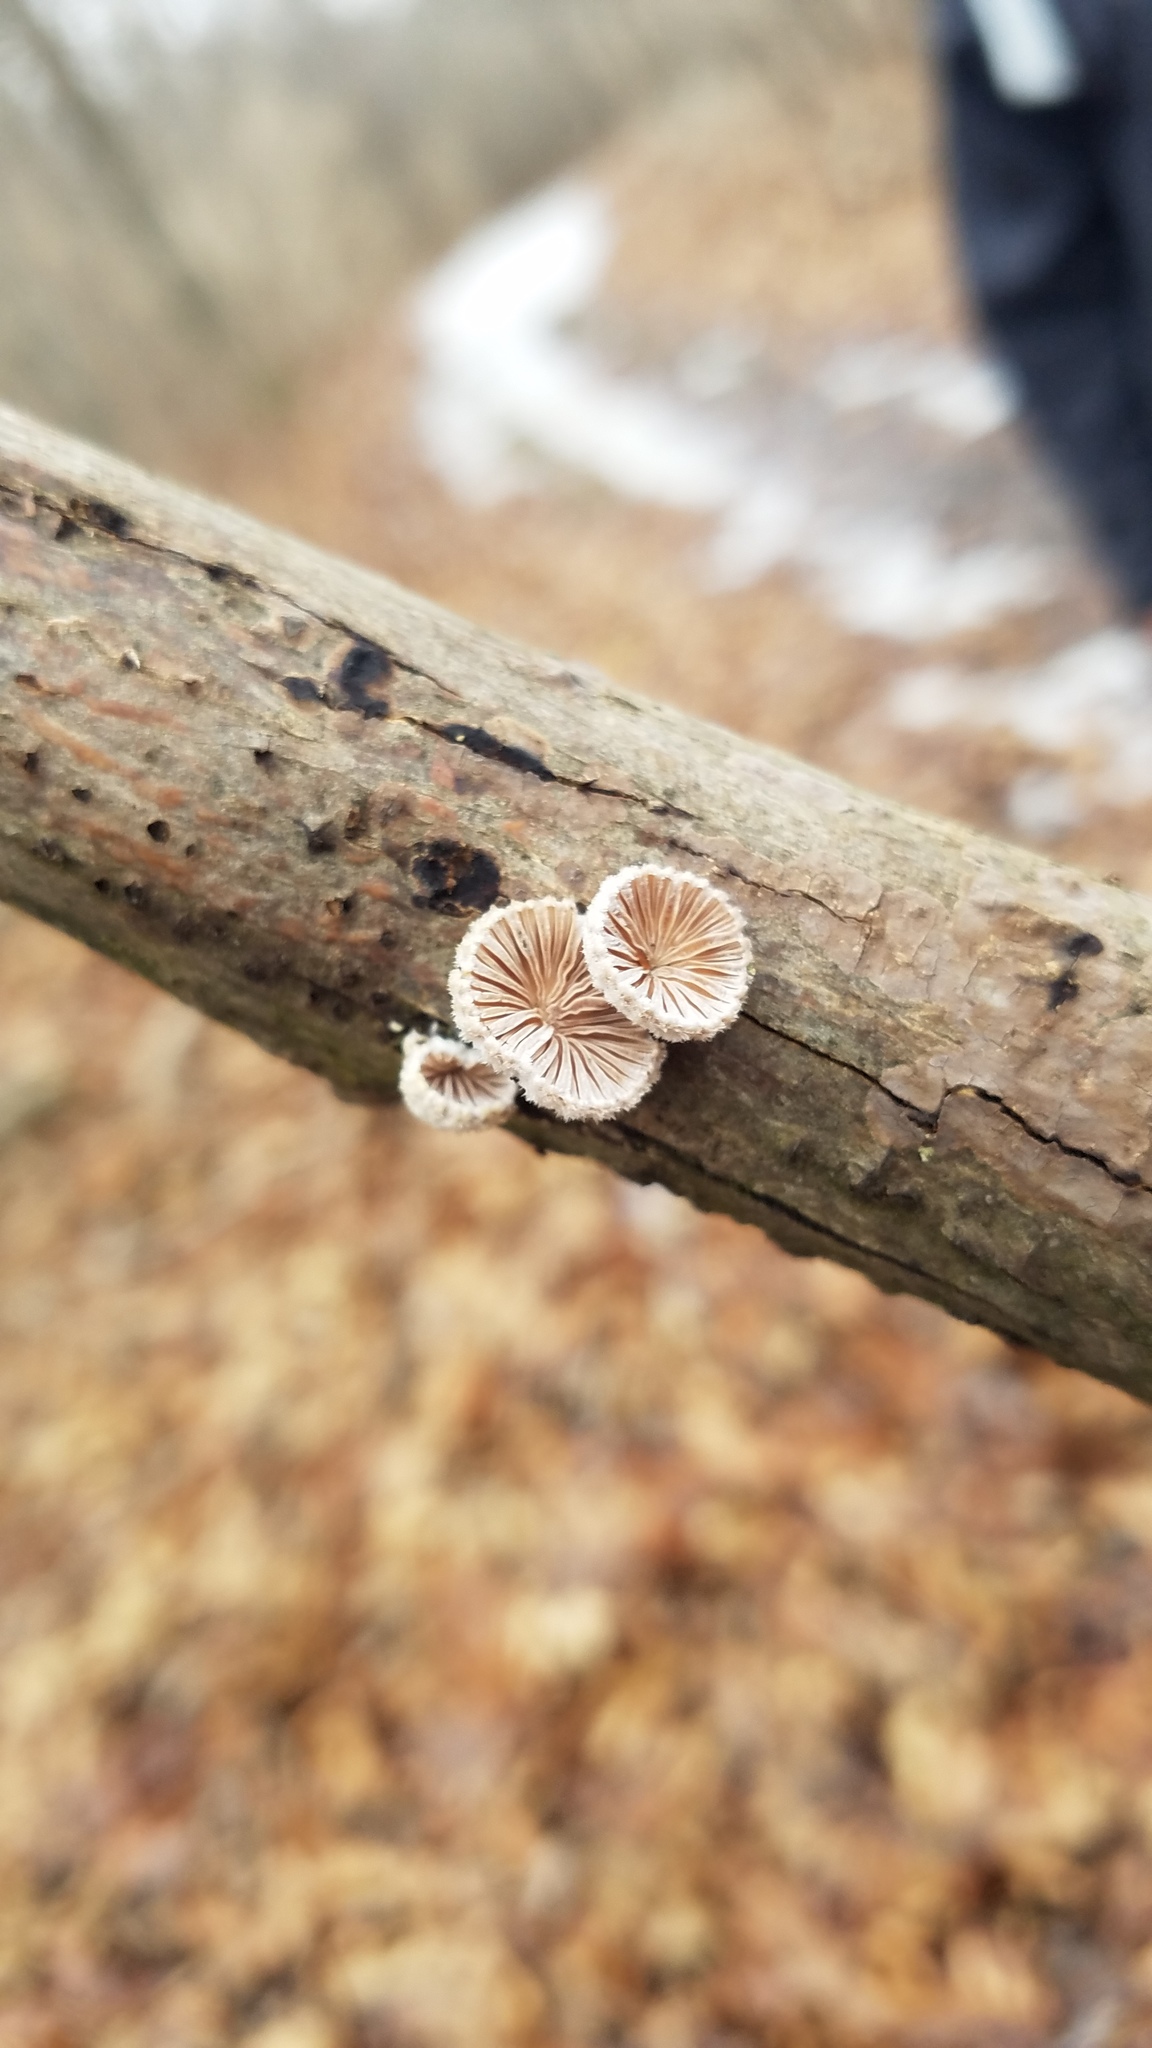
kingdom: Fungi
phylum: Basidiomycota
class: Agaricomycetes
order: Agaricales
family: Schizophyllaceae
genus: Schizophyllum
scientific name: Schizophyllum commune
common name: Common porecrust
